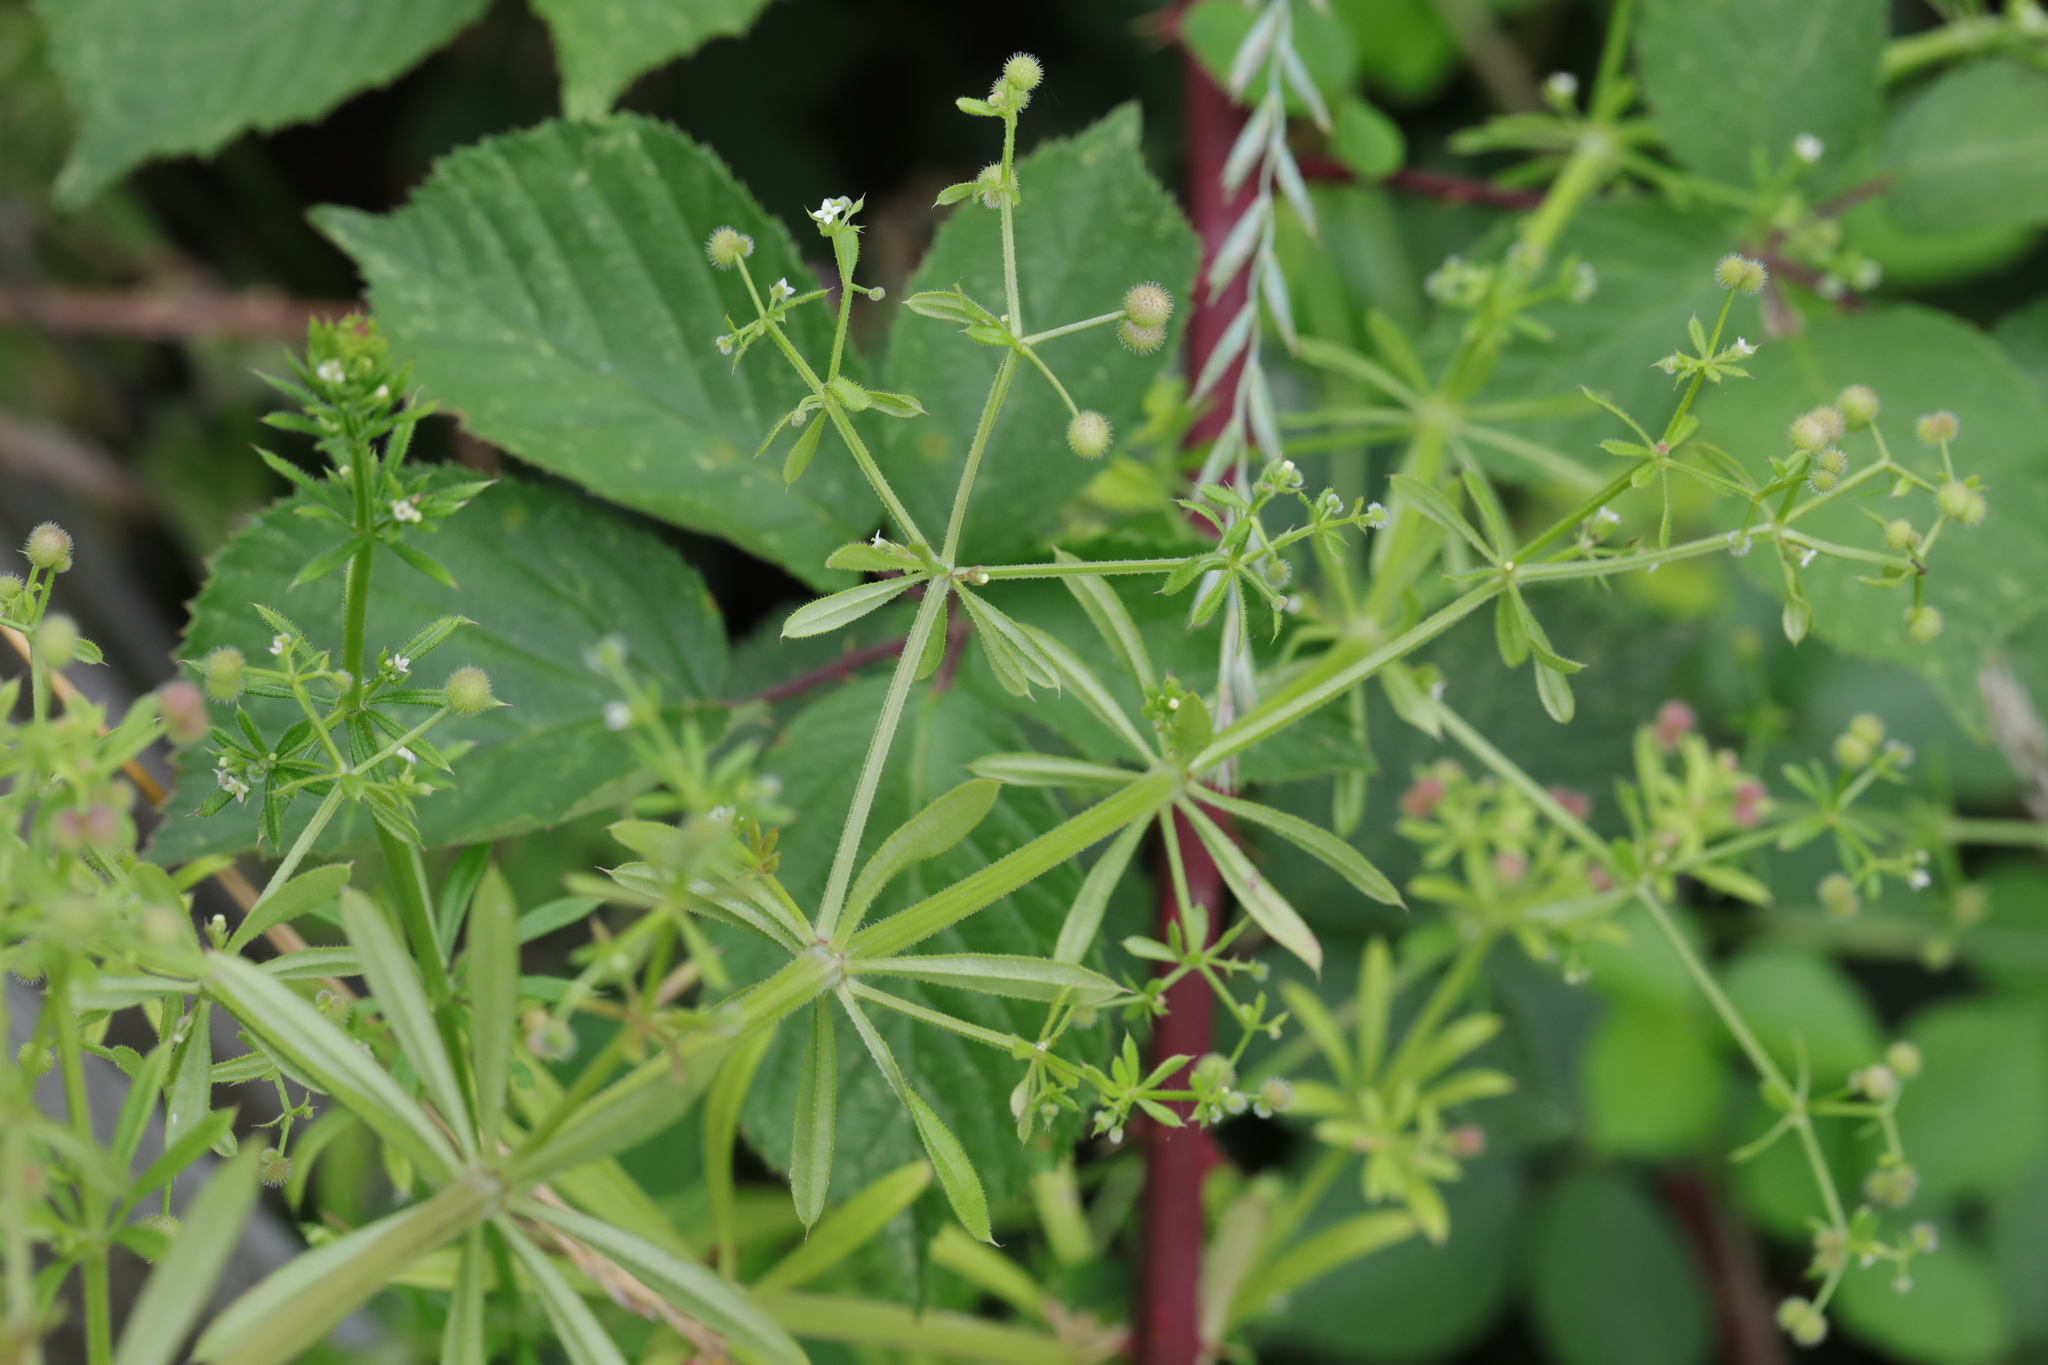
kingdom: Plantae
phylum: Tracheophyta
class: Magnoliopsida
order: Gentianales
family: Rubiaceae
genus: Galium
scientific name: Galium aparine
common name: Cleavers
